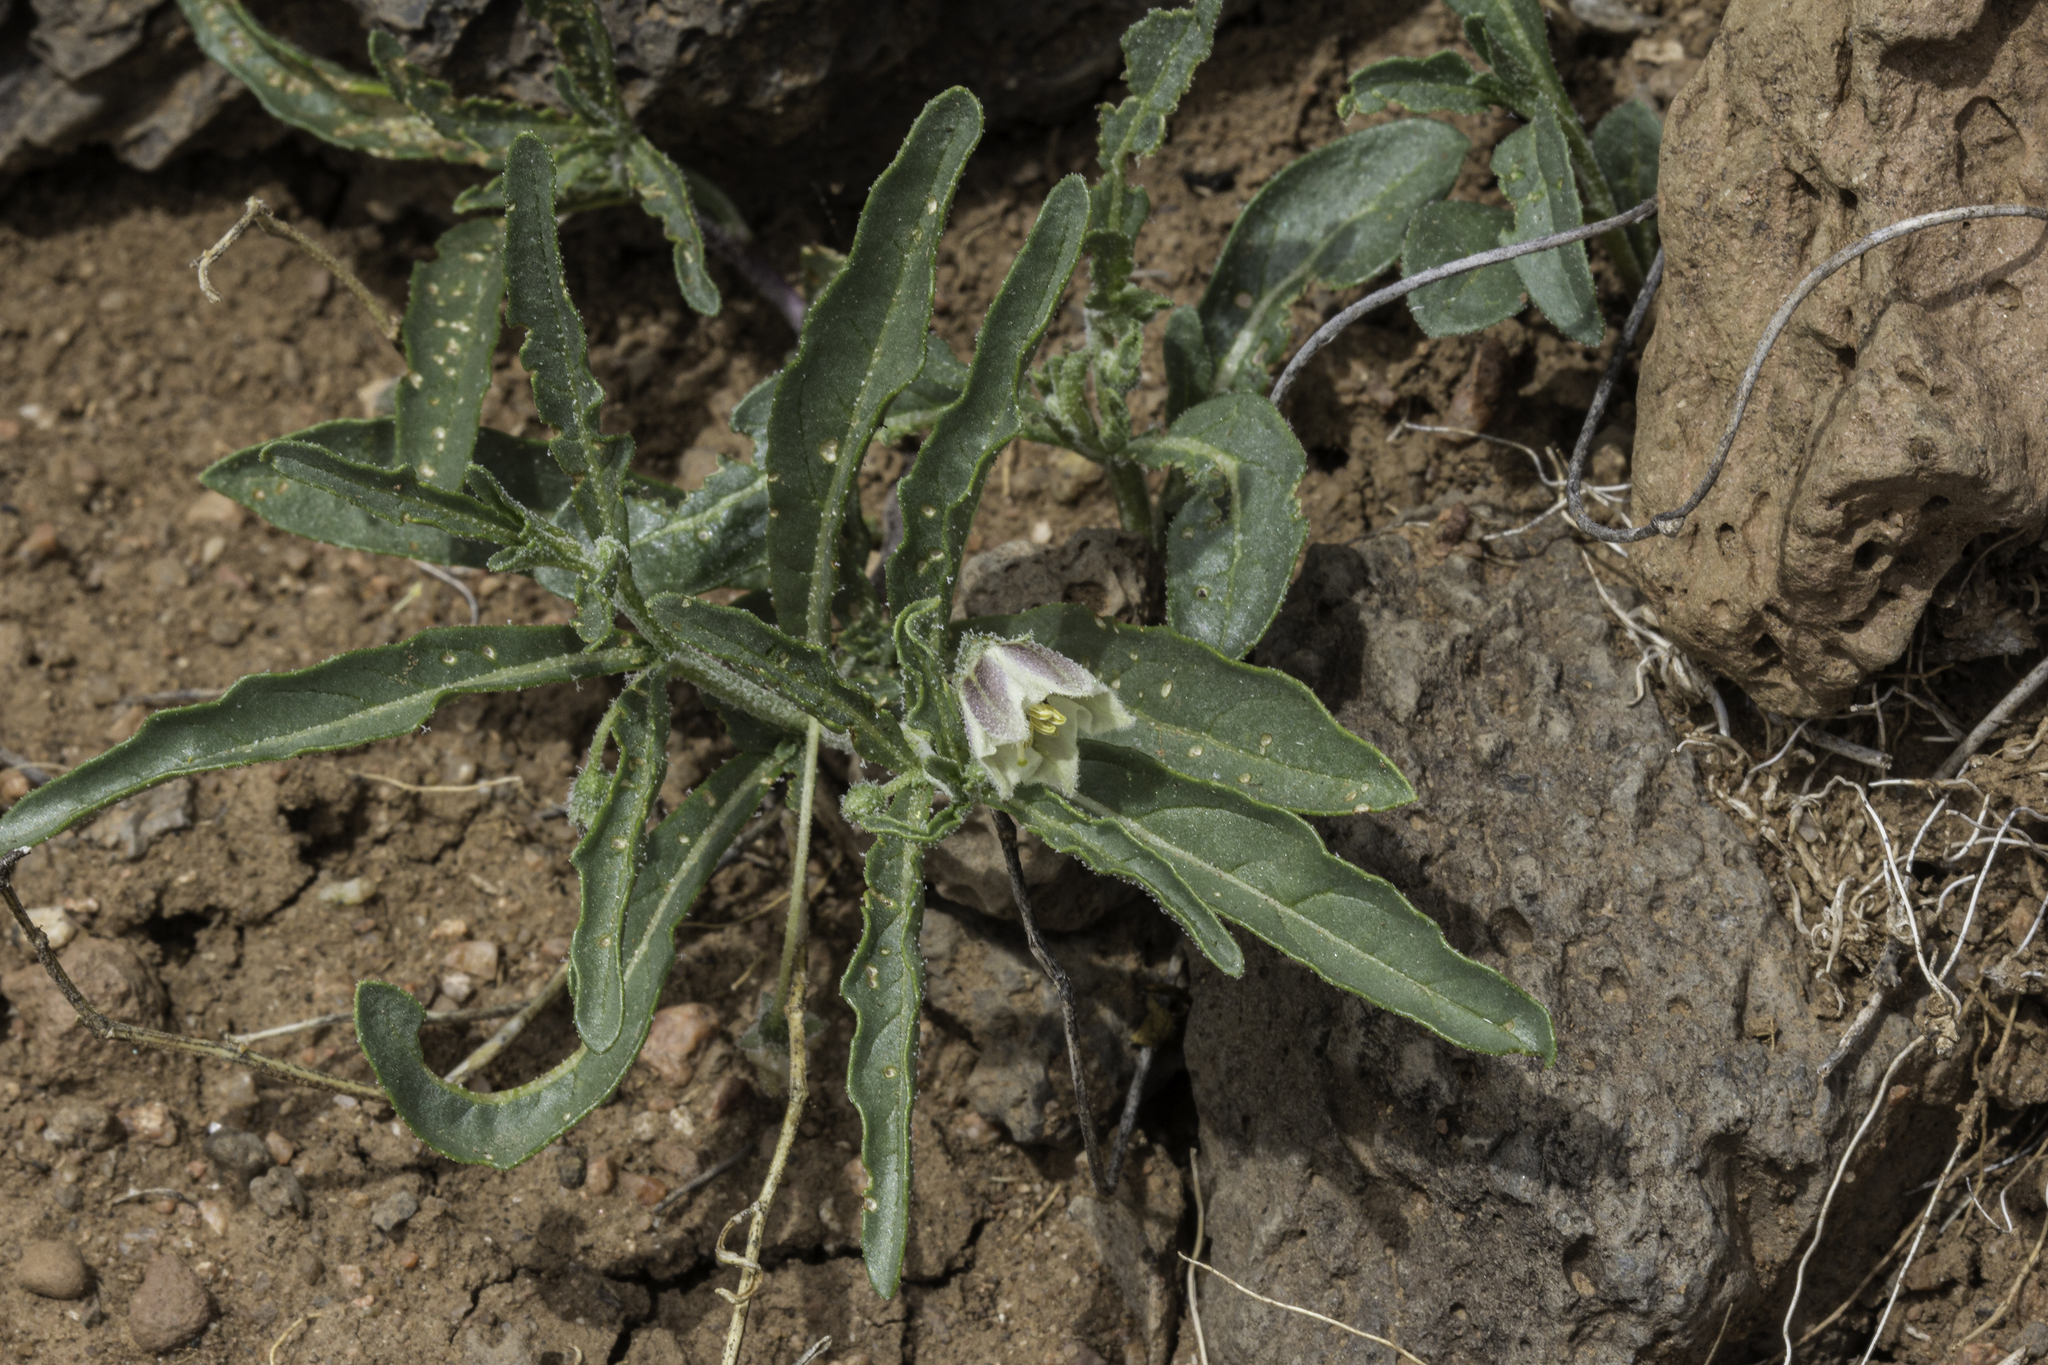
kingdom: Plantae
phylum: Tracheophyta
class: Magnoliopsida
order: Solanales
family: Solanaceae
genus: Chamaesaracha
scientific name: Chamaesaracha coronopus
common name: Smooth chamaesaracha
